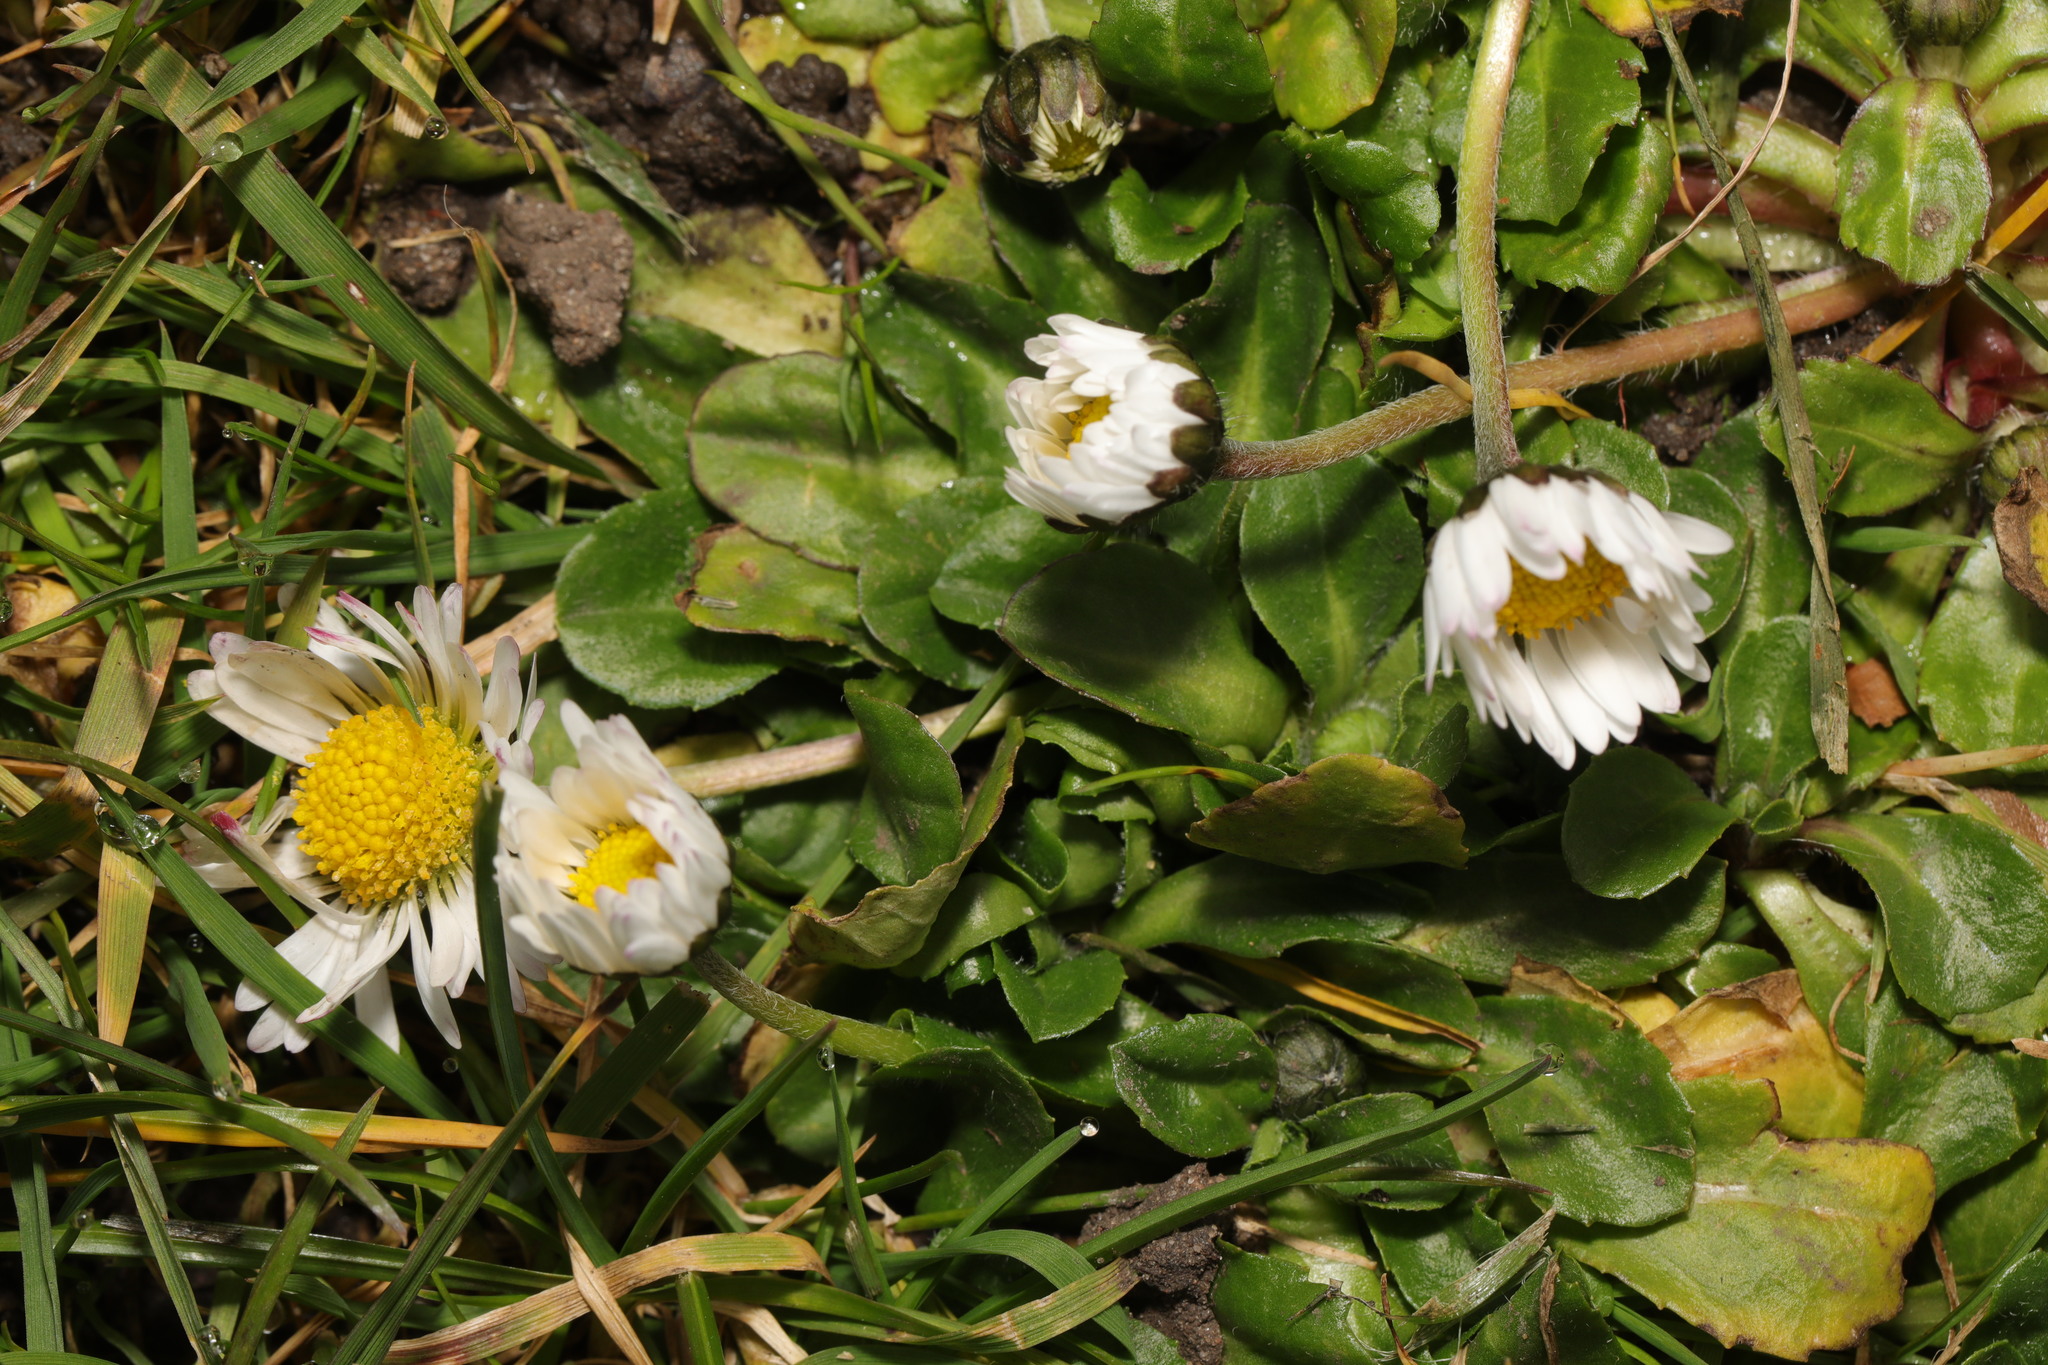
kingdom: Plantae
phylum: Tracheophyta
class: Magnoliopsida
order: Asterales
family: Asteraceae
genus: Bellis
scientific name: Bellis perennis
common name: Lawndaisy
